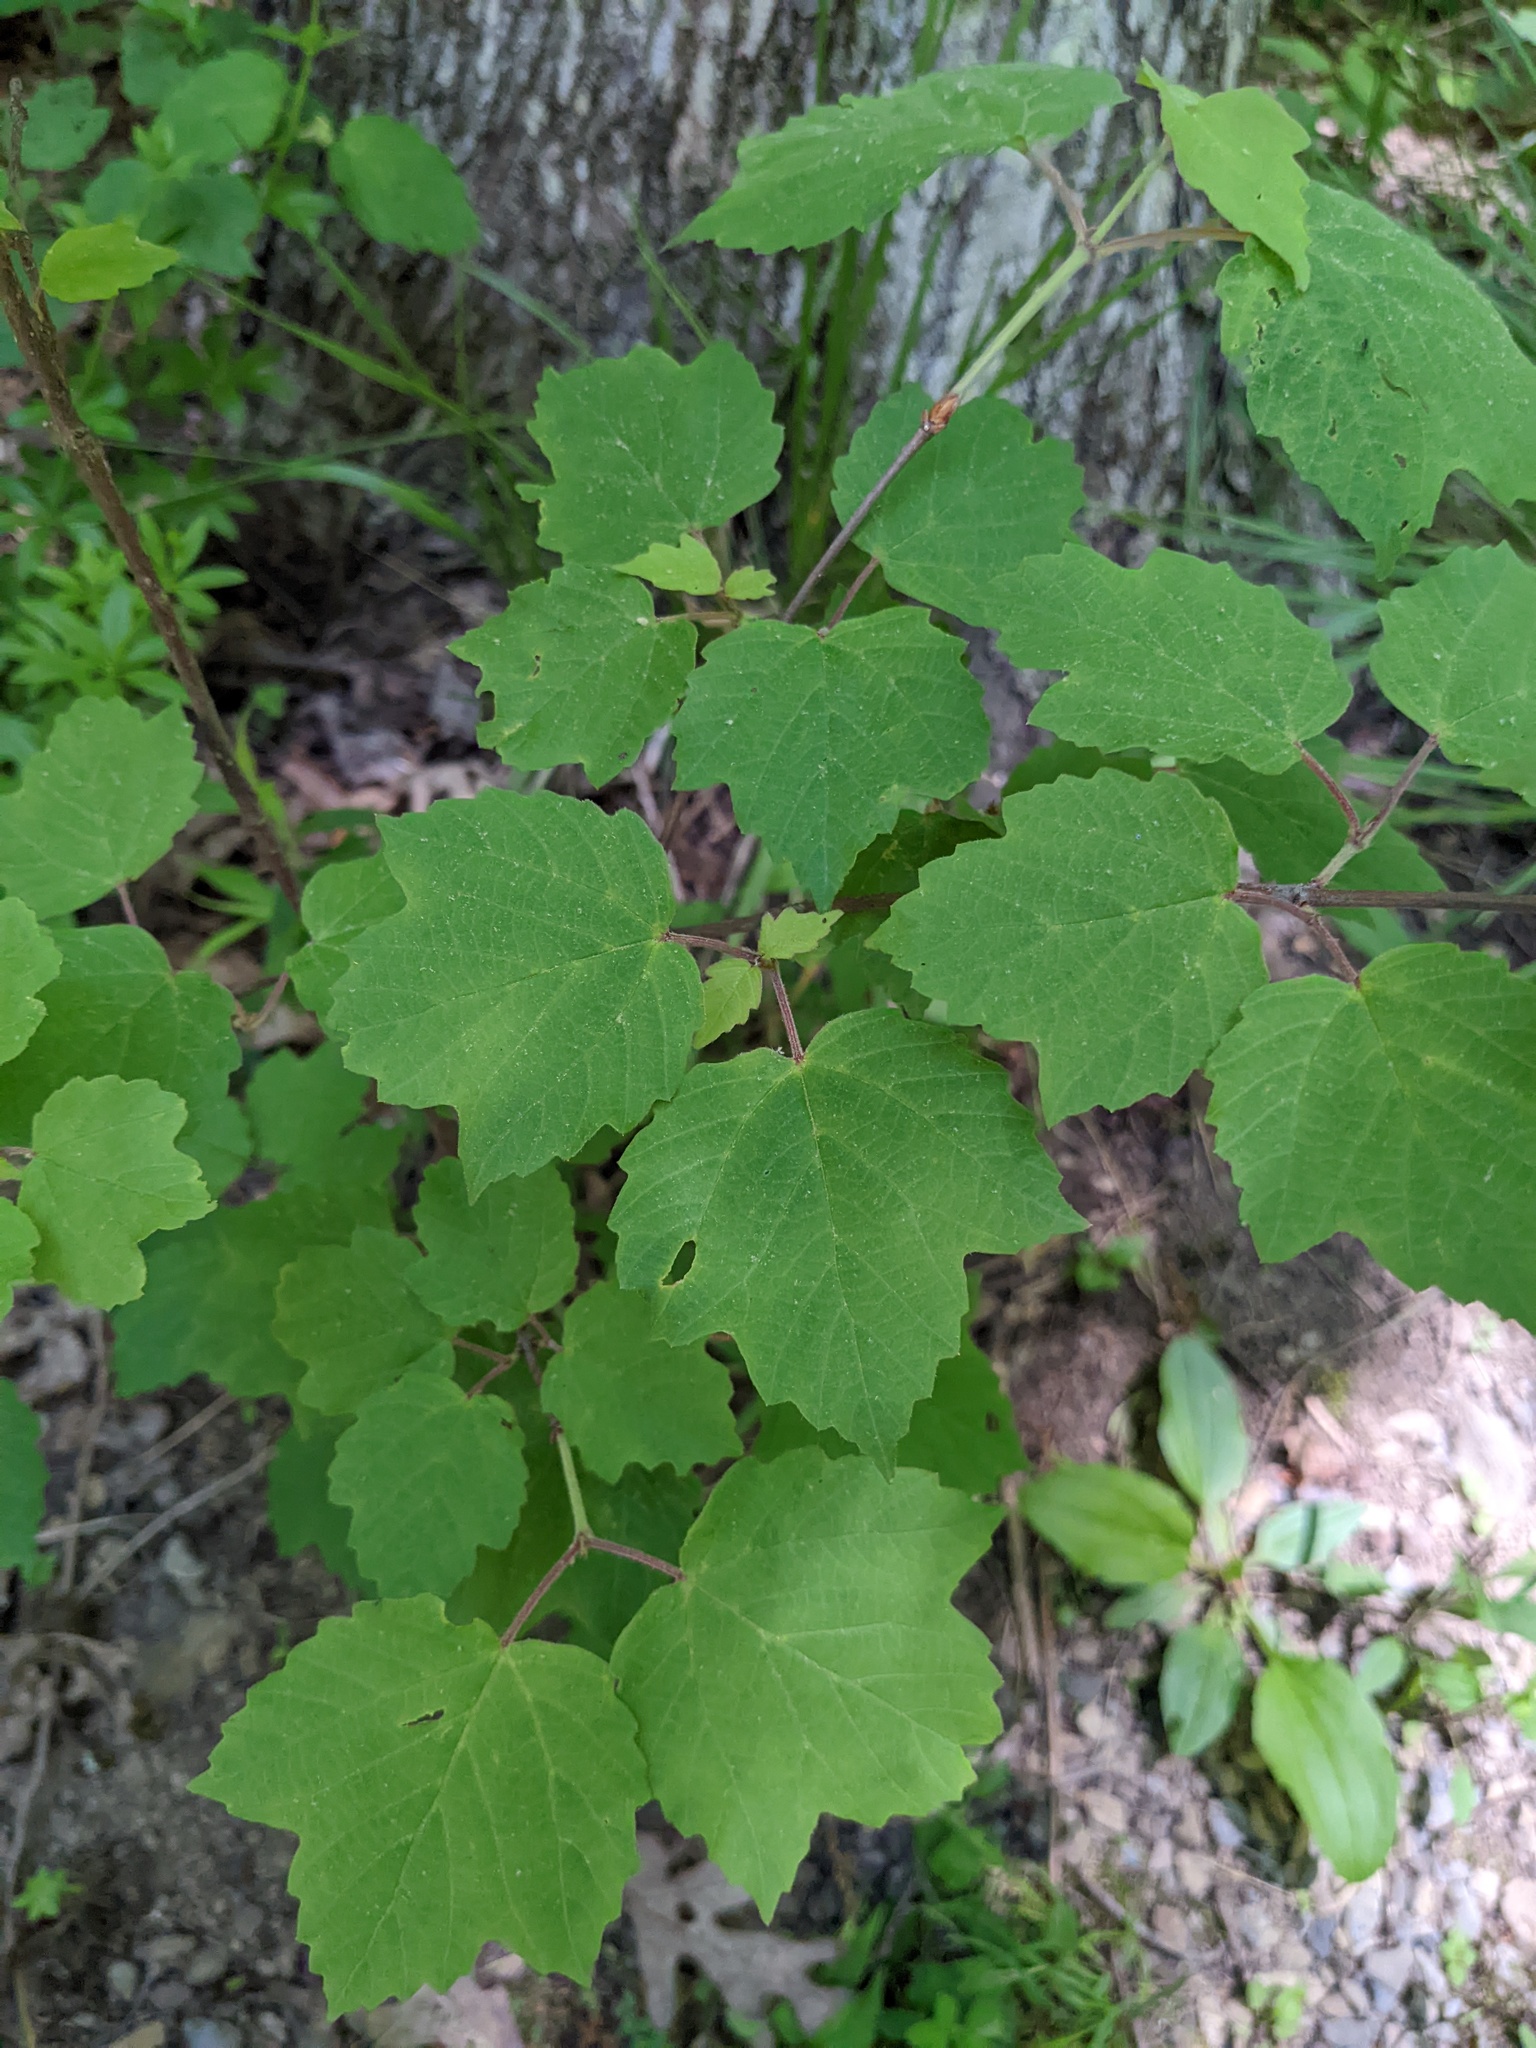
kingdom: Plantae
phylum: Tracheophyta
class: Magnoliopsida
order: Dipsacales
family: Viburnaceae
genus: Viburnum
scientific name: Viburnum acerifolium
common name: Dockmackie
